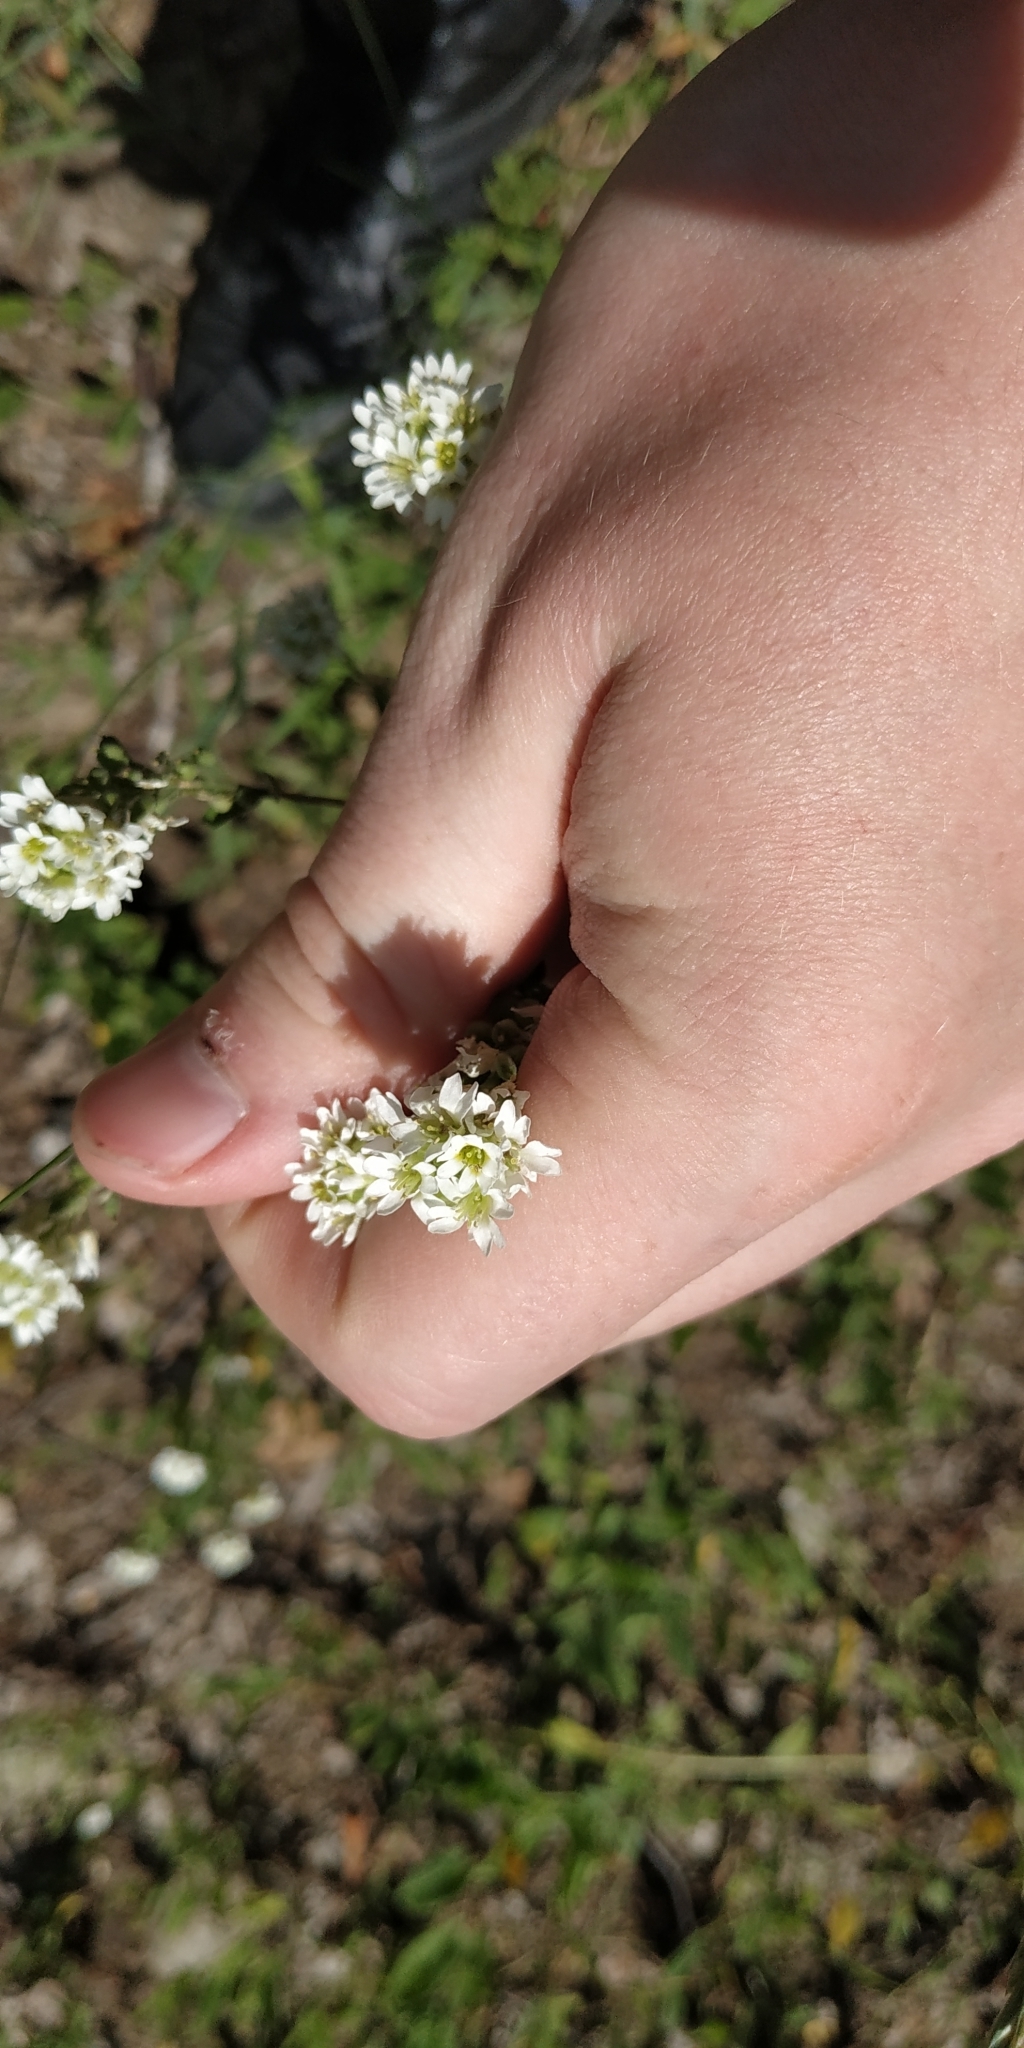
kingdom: Plantae
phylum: Tracheophyta
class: Magnoliopsida
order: Brassicales
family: Brassicaceae
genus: Berteroa
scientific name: Berteroa incana
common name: Hoary alison
